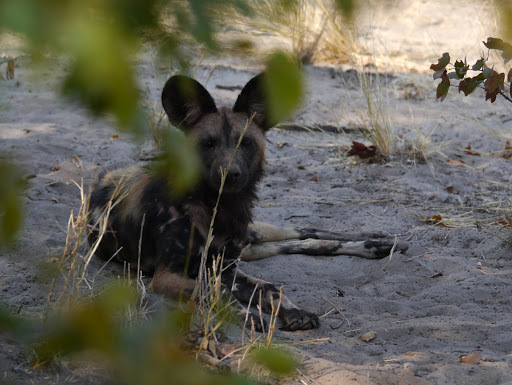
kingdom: Animalia
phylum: Chordata
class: Mammalia
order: Carnivora
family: Canidae
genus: Lycaon
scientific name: Lycaon pictus
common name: African wild dog
